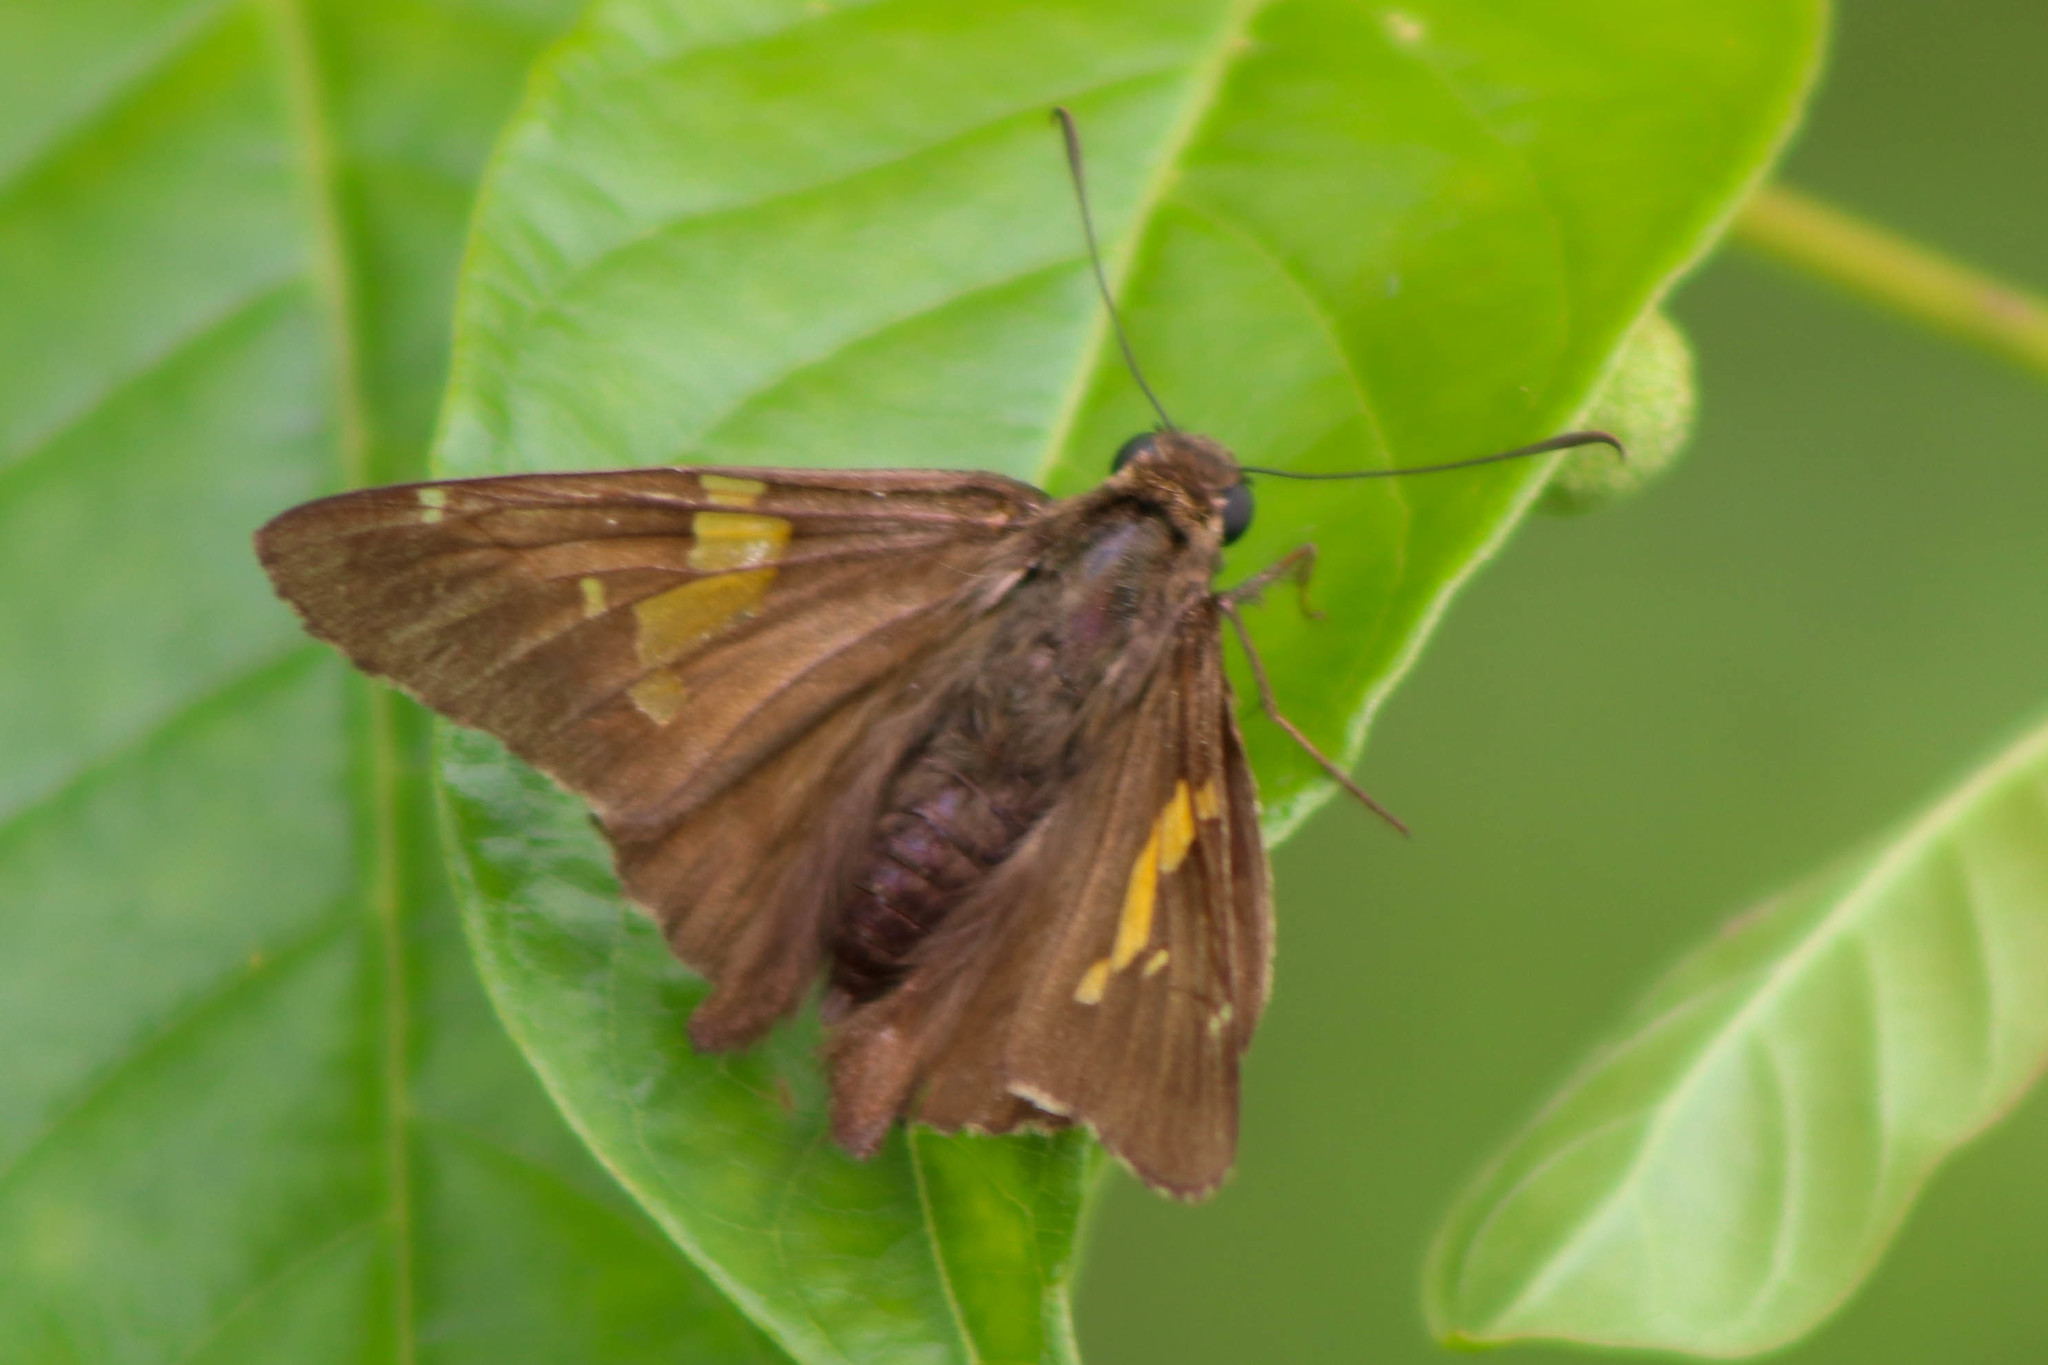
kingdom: Animalia
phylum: Arthropoda
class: Insecta
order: Lepidoptera
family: Hesperiidae
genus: Epargyreus
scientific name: Epargyreus clarus
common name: Silver-spotted skipper
